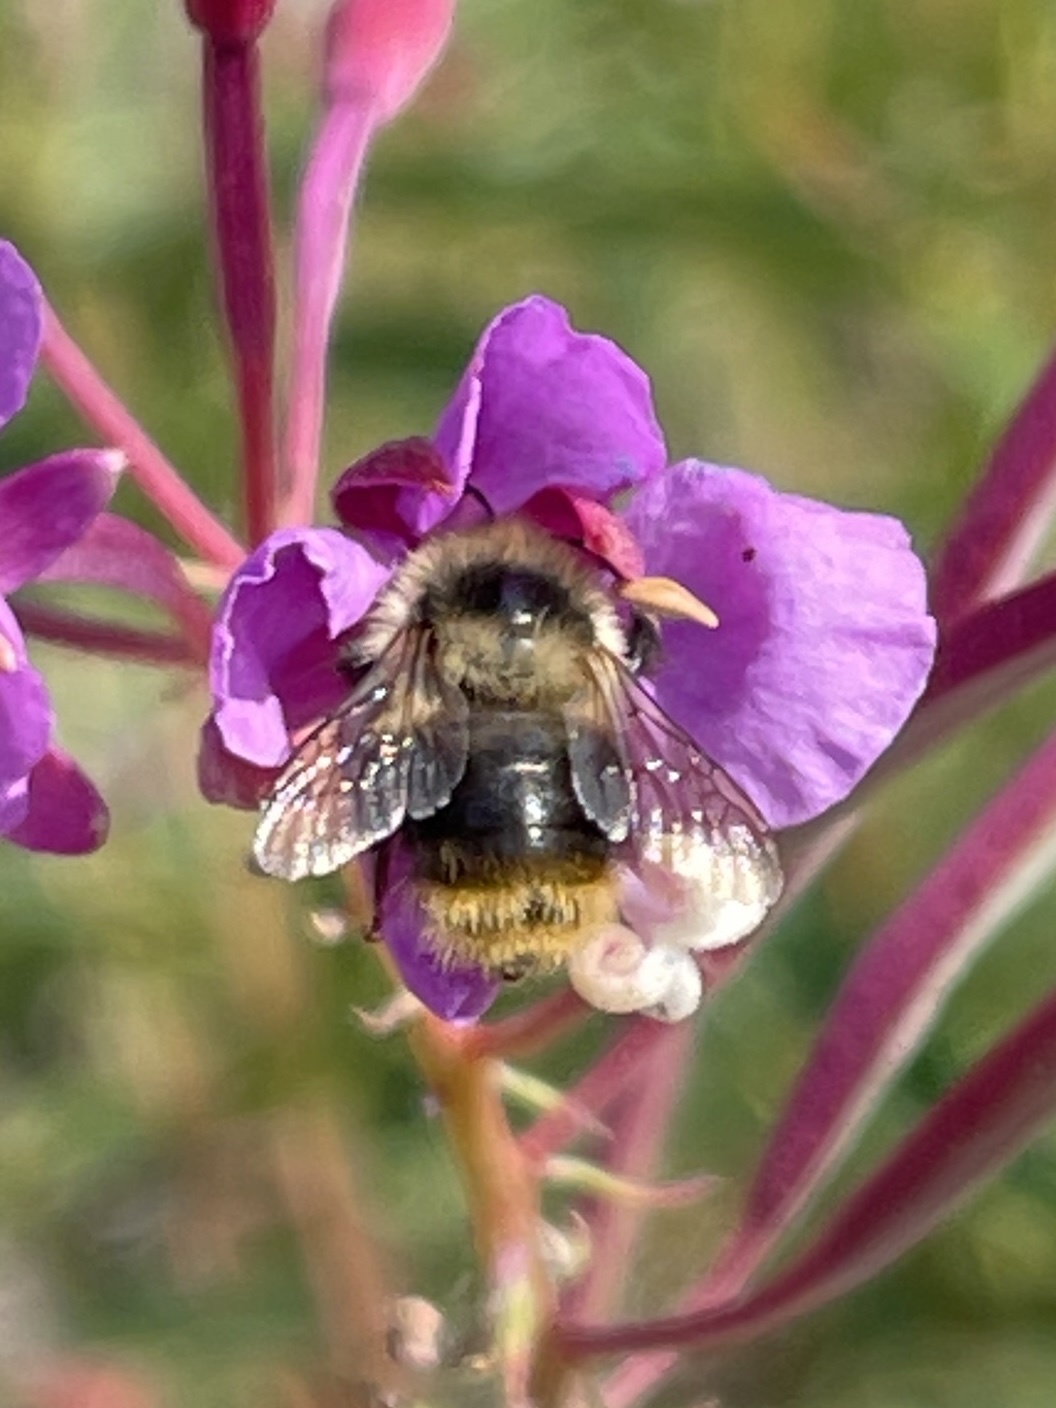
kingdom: Animalia
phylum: Arthropoda
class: Insecta
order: Hymenoptera
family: Apidae
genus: Bombus
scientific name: Bombus mixtus
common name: Fuzzy-horned bumble bee
